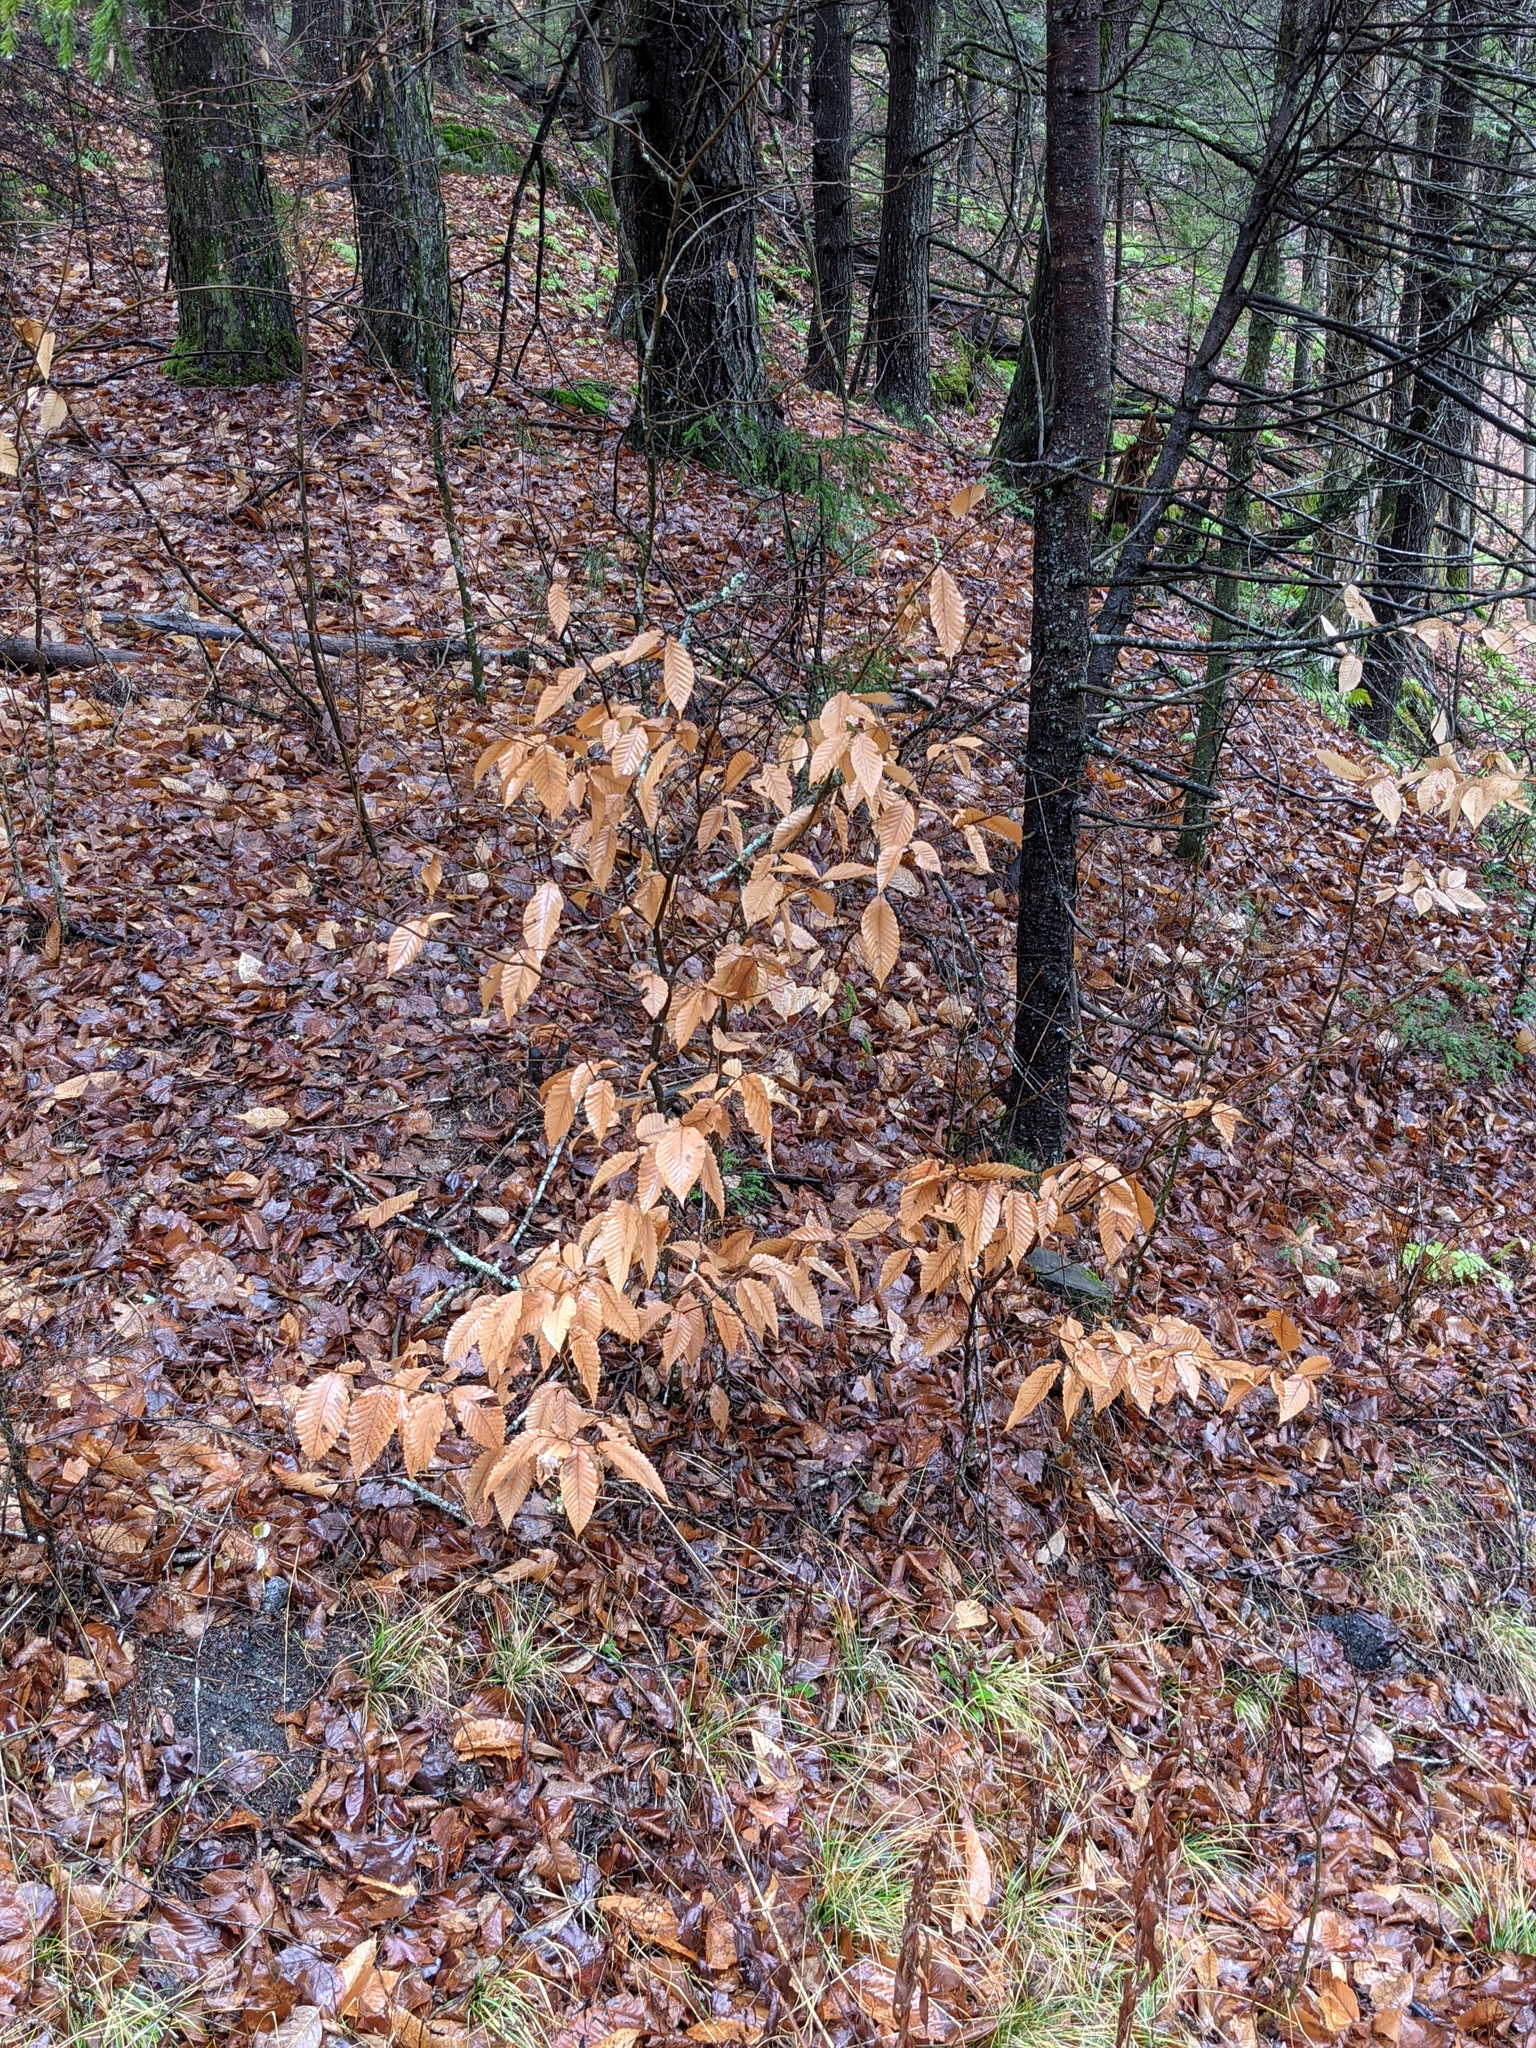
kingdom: Plantae
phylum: Tracheophyta
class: Magnoliopsida
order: Fagales
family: Fagaceae
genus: Fagus
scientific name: Fagus grandifolia
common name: American beech
